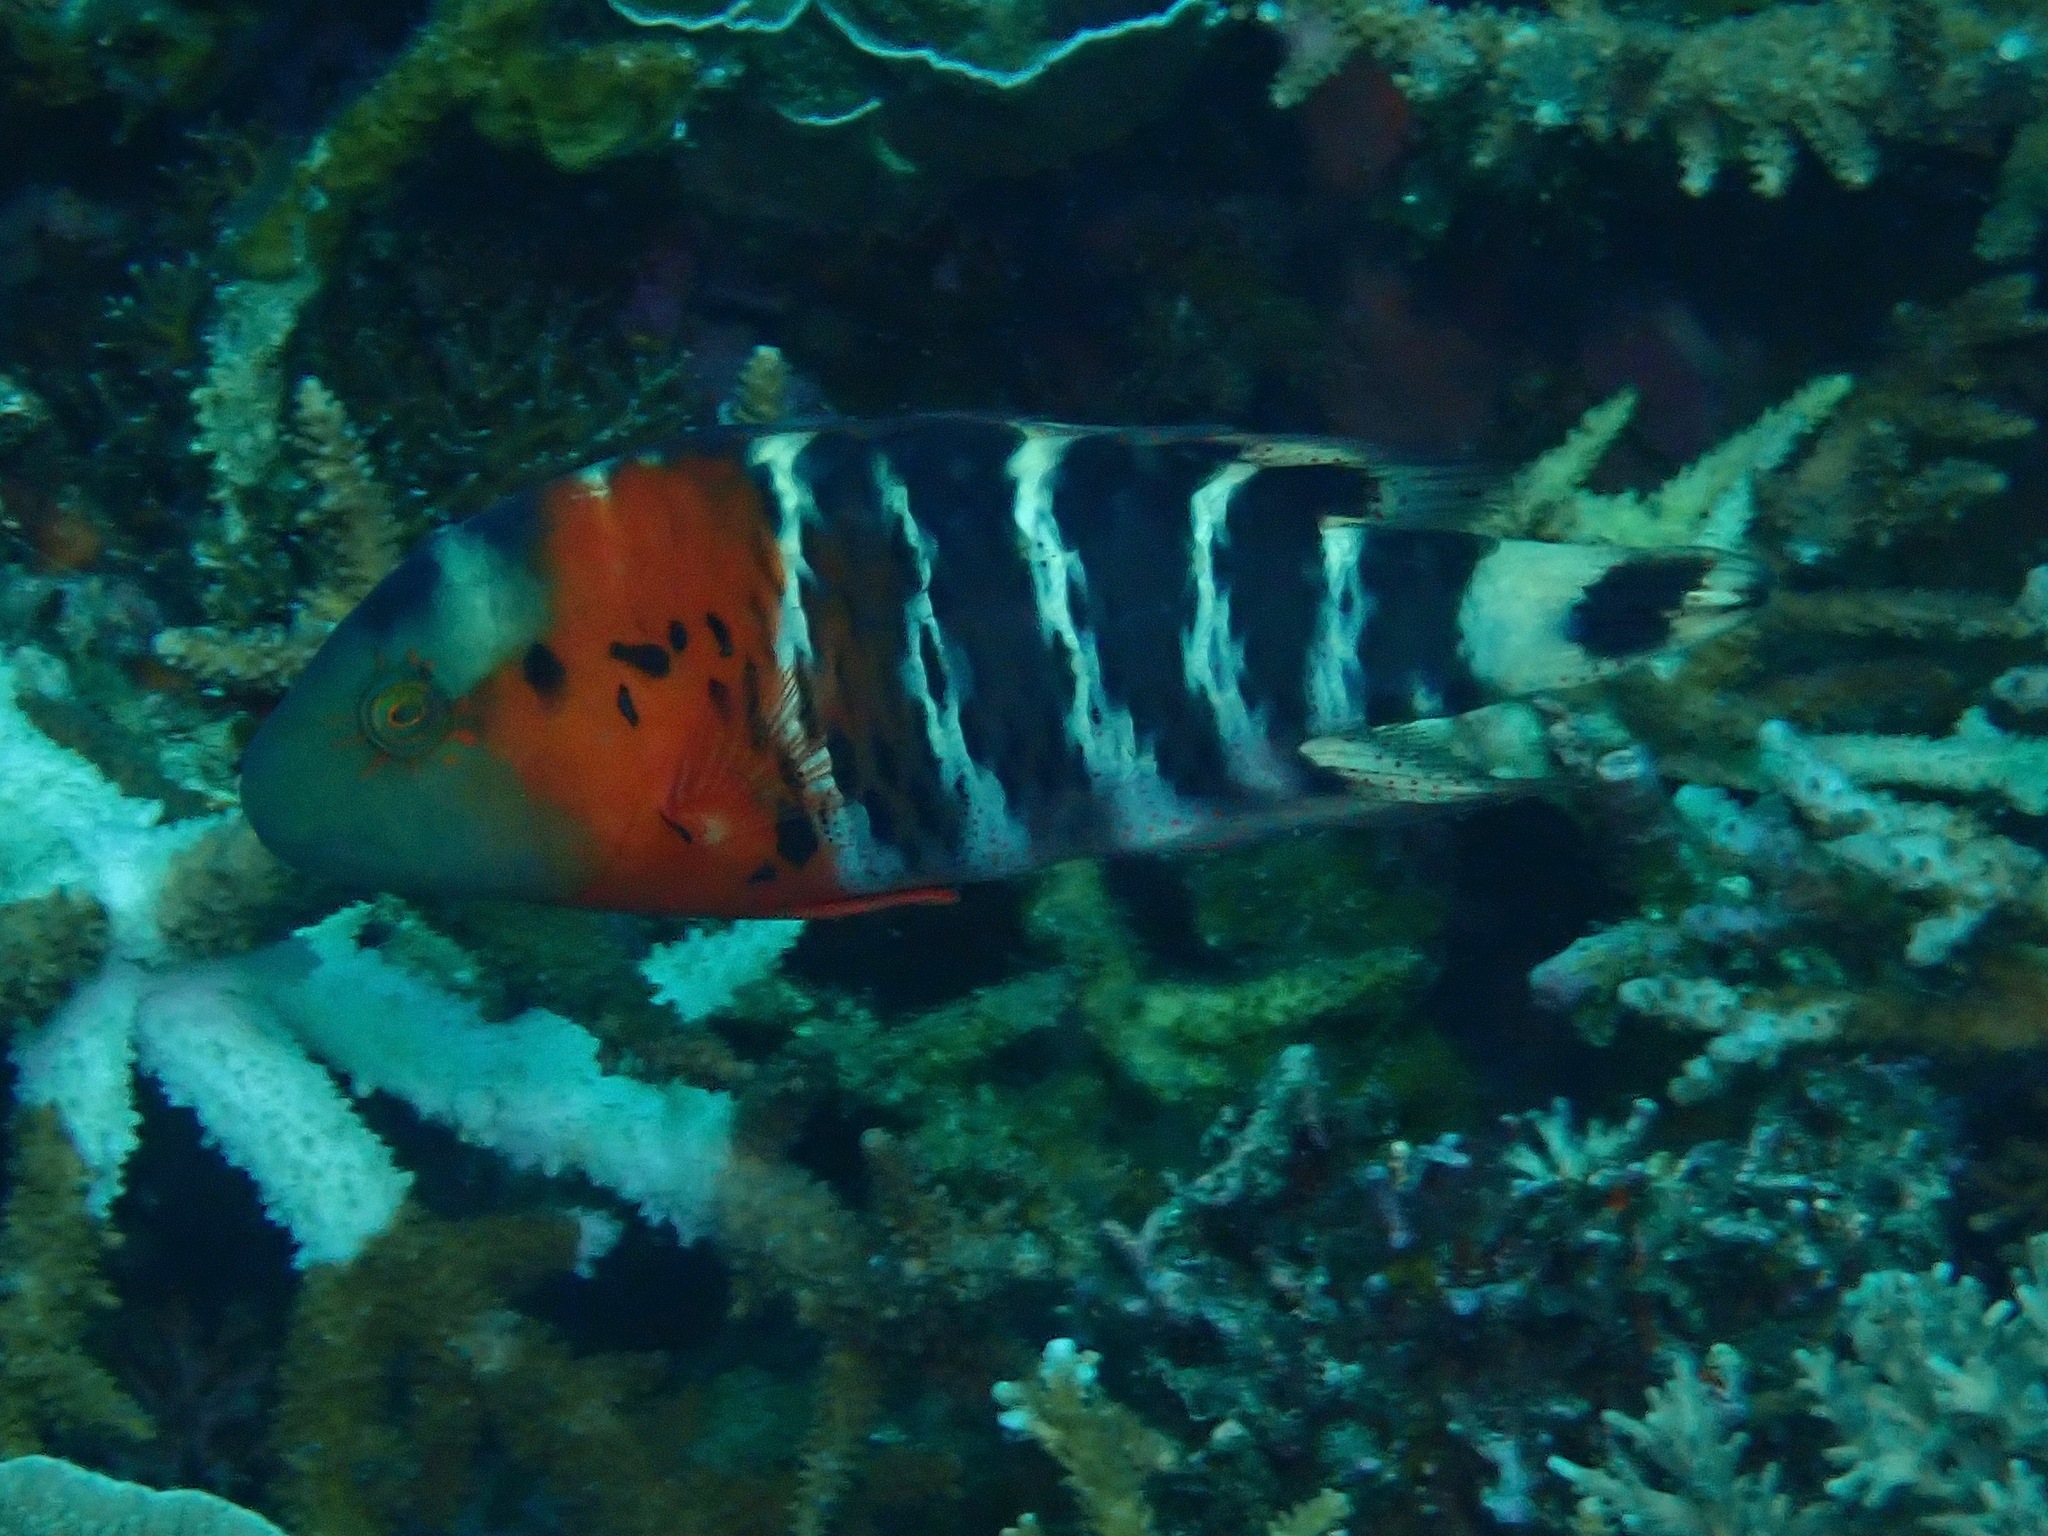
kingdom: Animalia
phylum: Chordata
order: Perciformes
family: Labridae
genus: Cheilinus
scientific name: Cheilinus fasciatus
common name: Red-breasted wrasse
